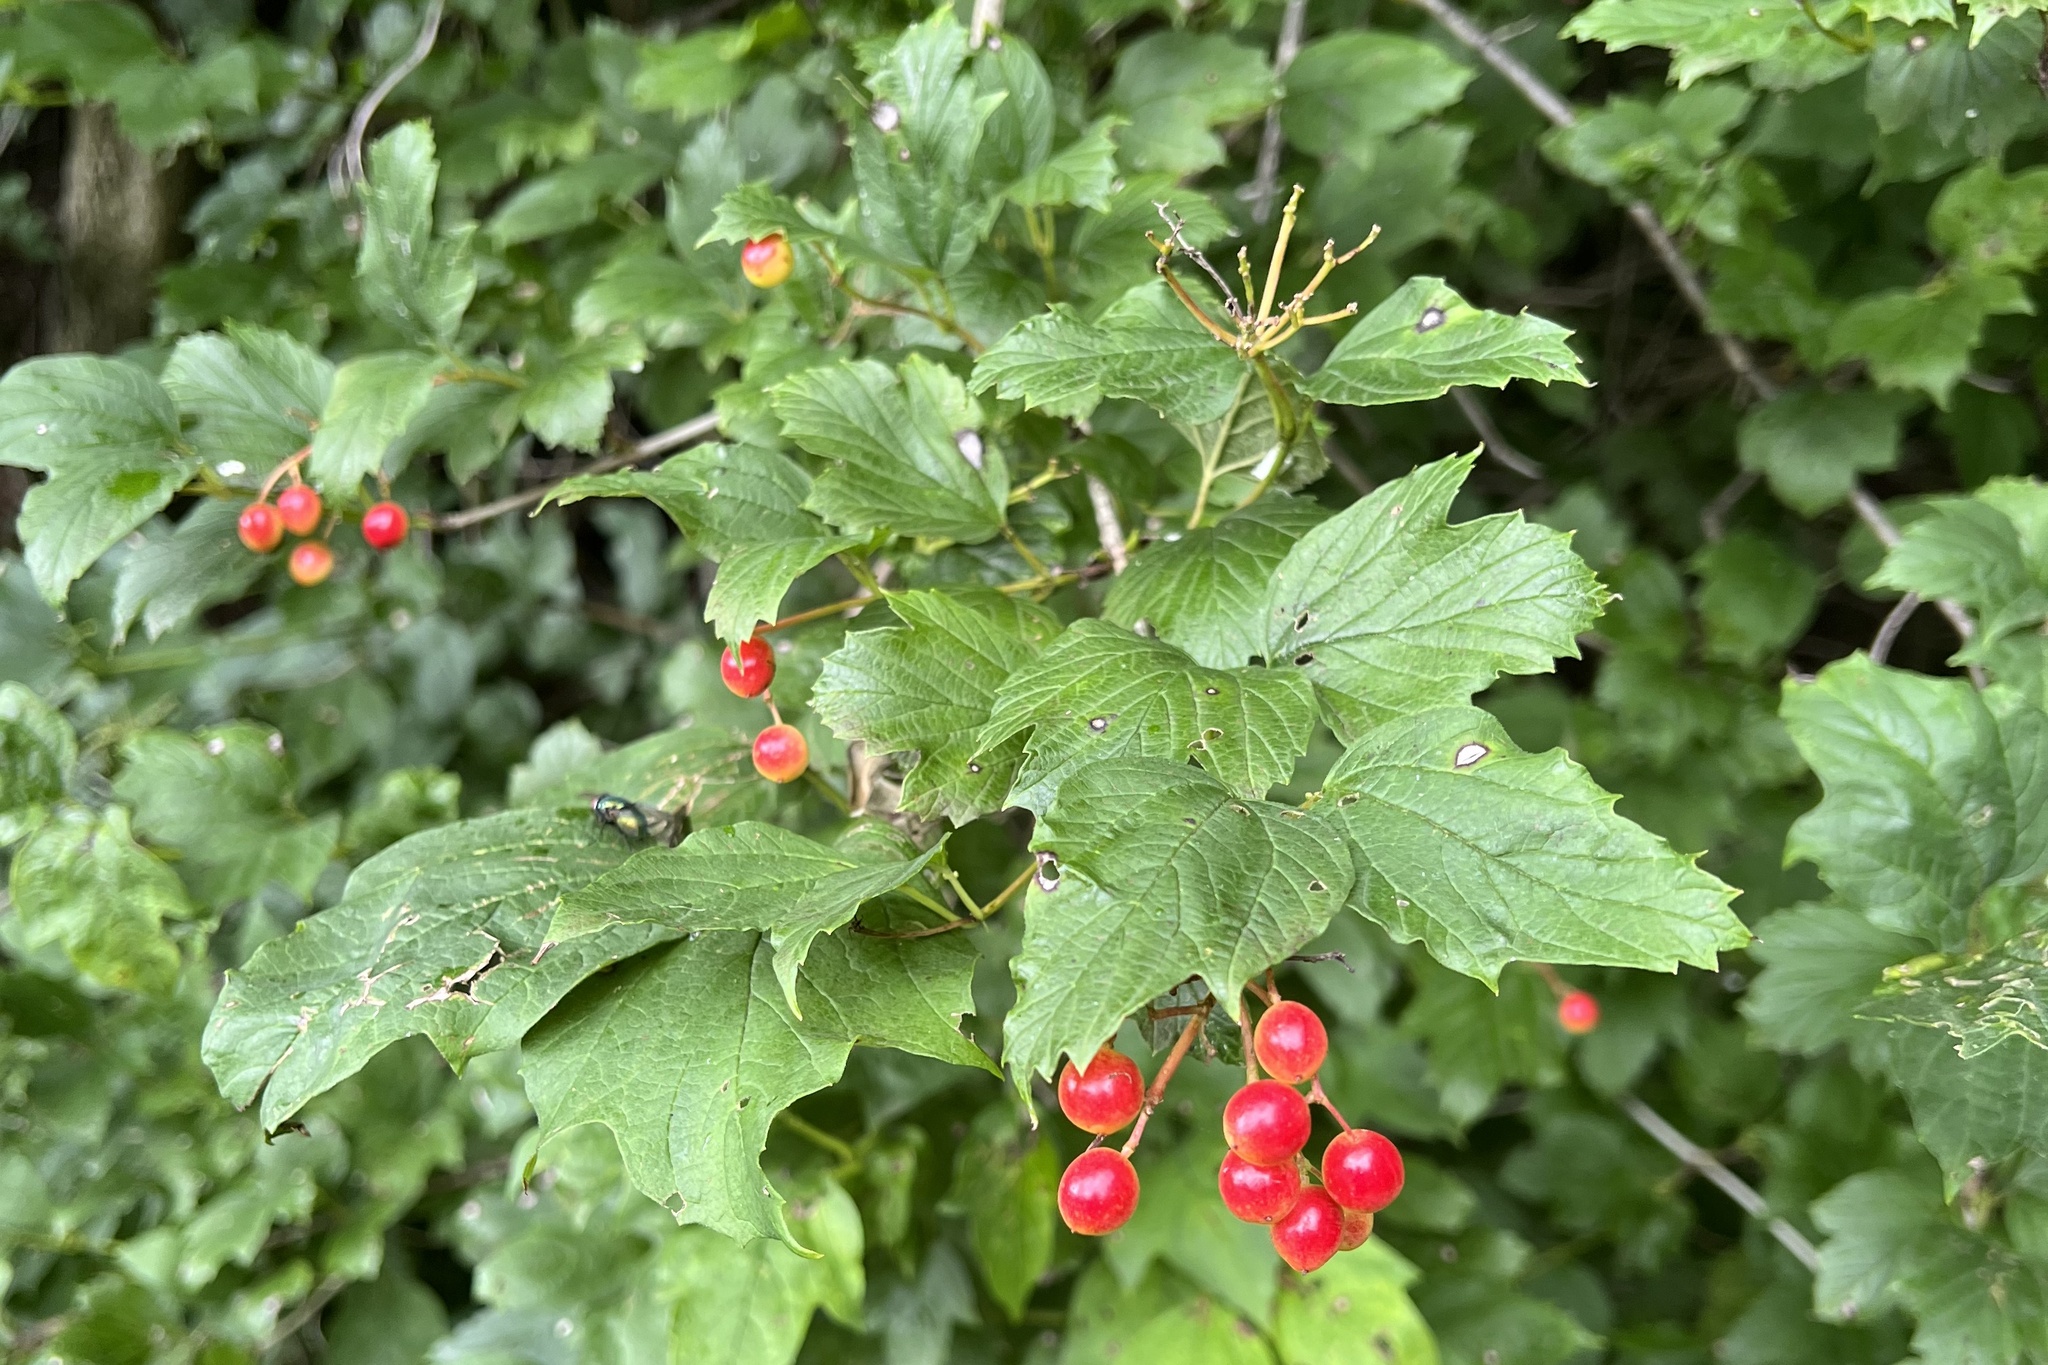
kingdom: Plantae
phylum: Tracheophyta
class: Magnoliopsida
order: Dipsacales
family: Viburnaceae
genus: Viburnum
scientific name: Viburnum opulus
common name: Guelder-rose
